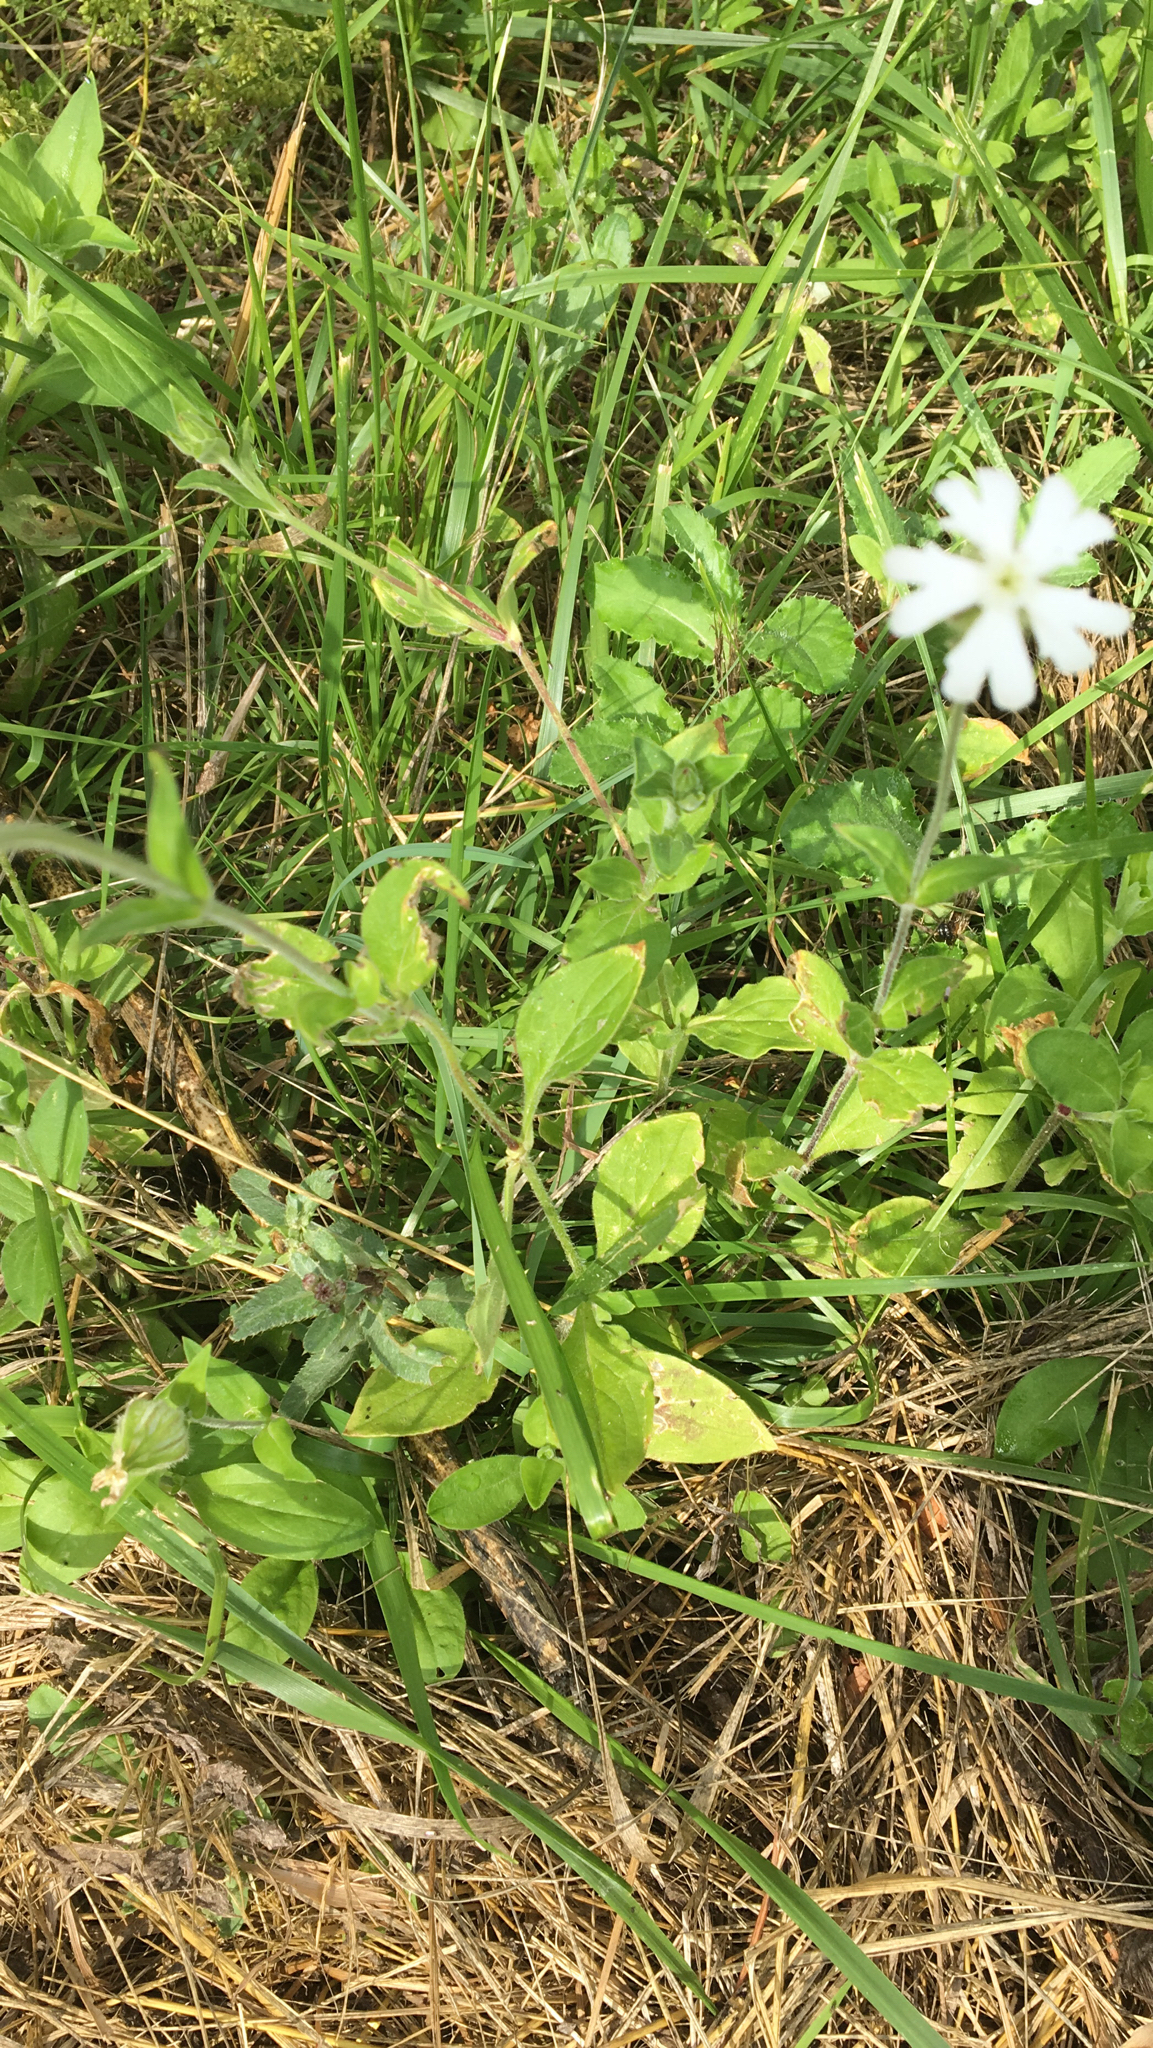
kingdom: Plantae
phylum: Tracheophyta
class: Magnoliopsida
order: Caryophyllales
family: Caryophyllaceae
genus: Silene
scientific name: Silene latifolia
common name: White campion
